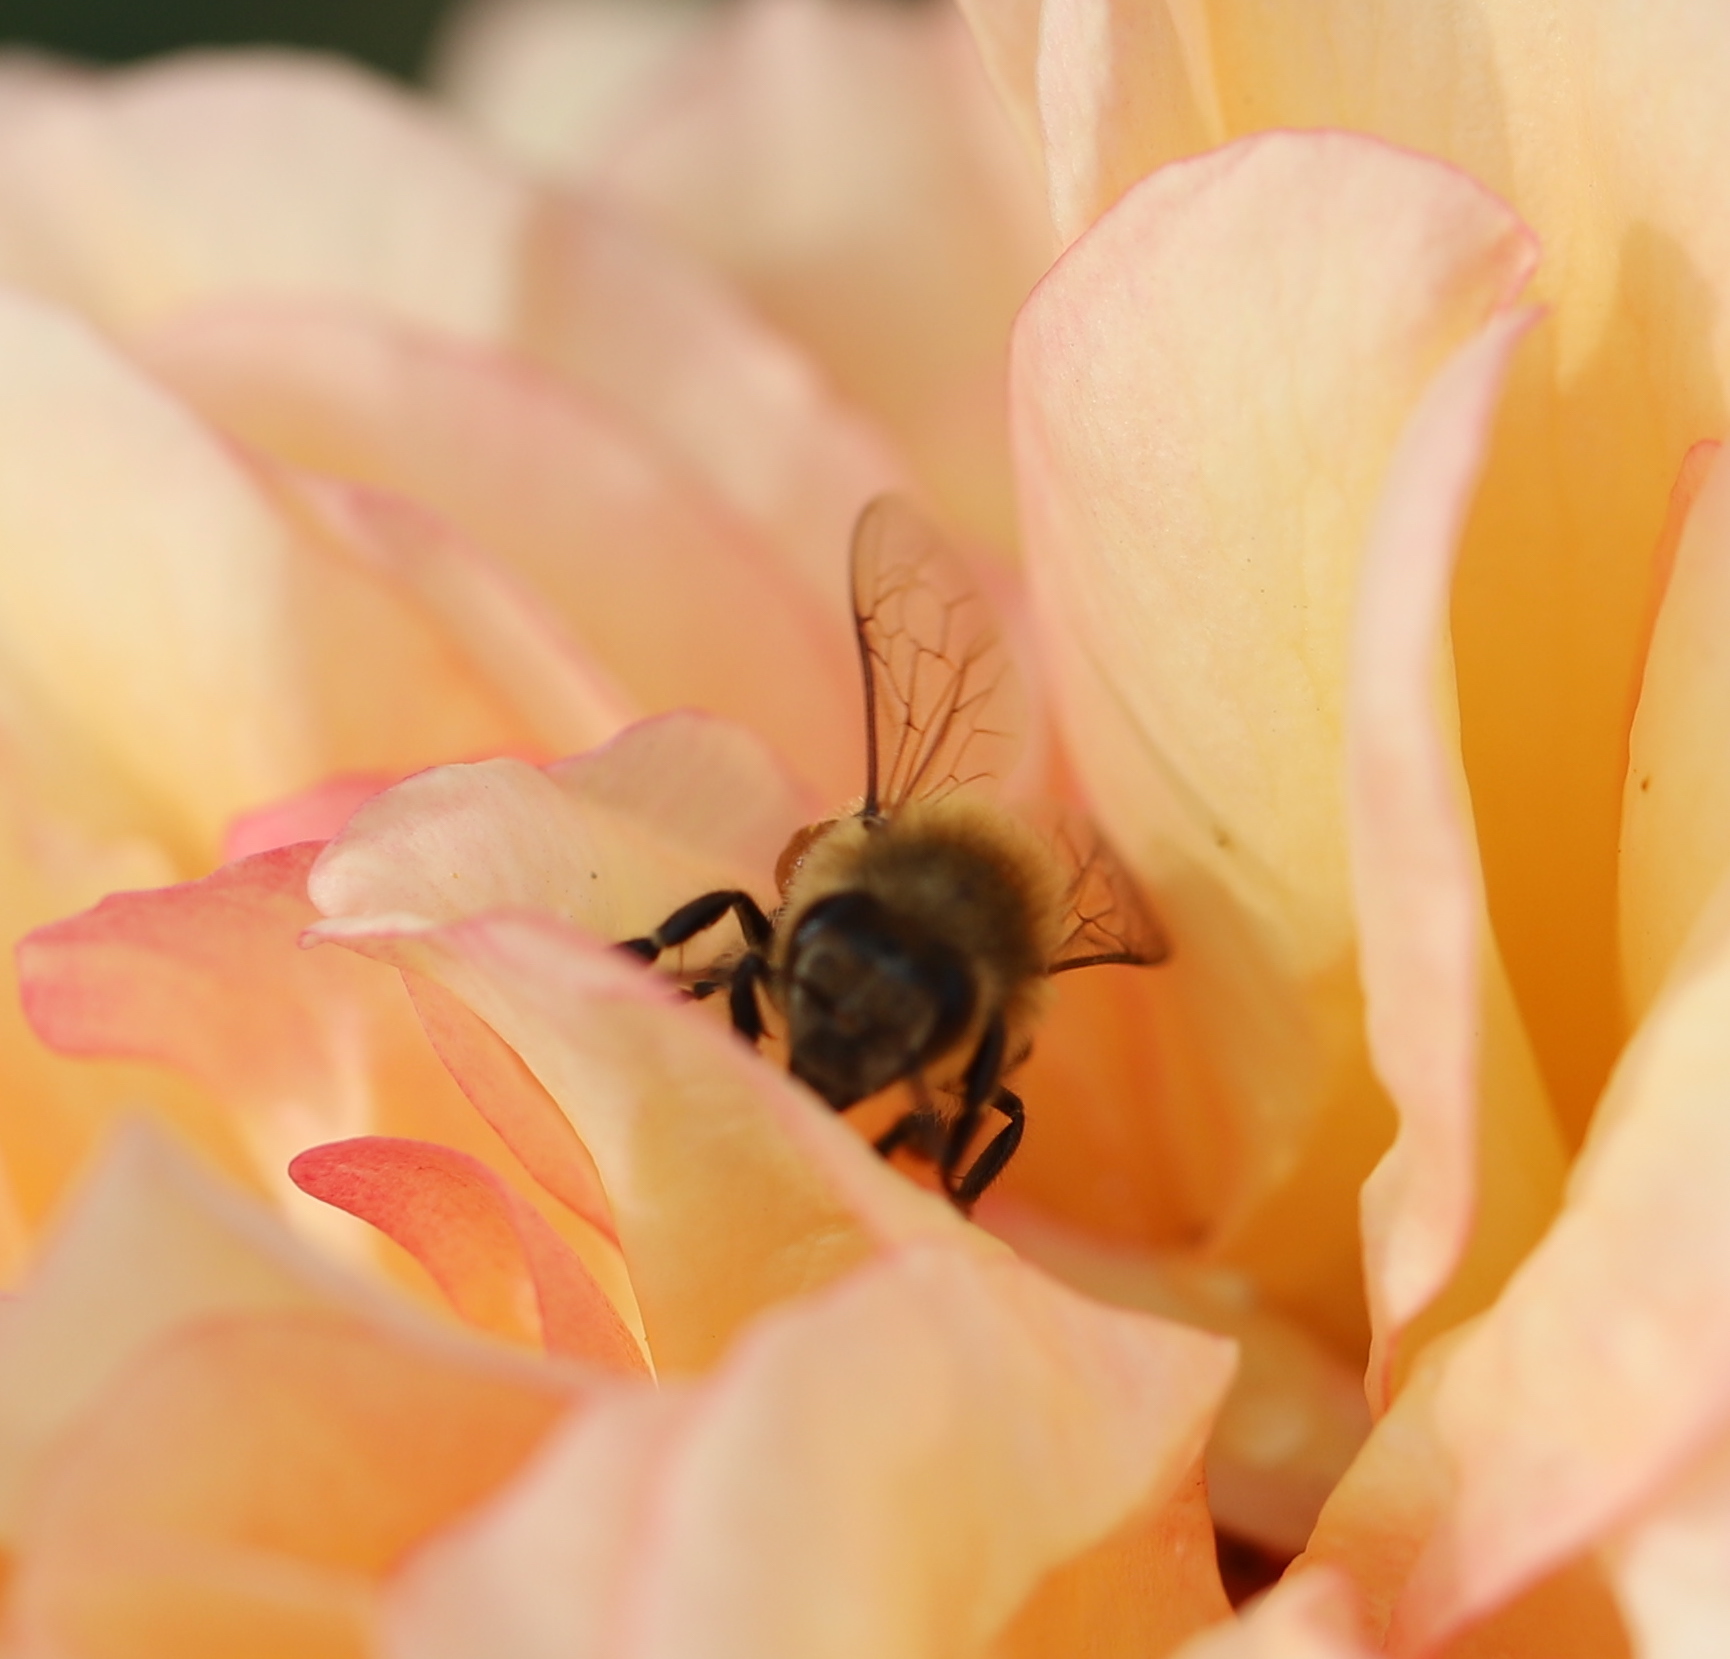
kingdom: Animalia
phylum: Arthropoda
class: Insecta
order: Hymenoptera
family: Apidae
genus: Apis
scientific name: Apis mellifera
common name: Honey bee
